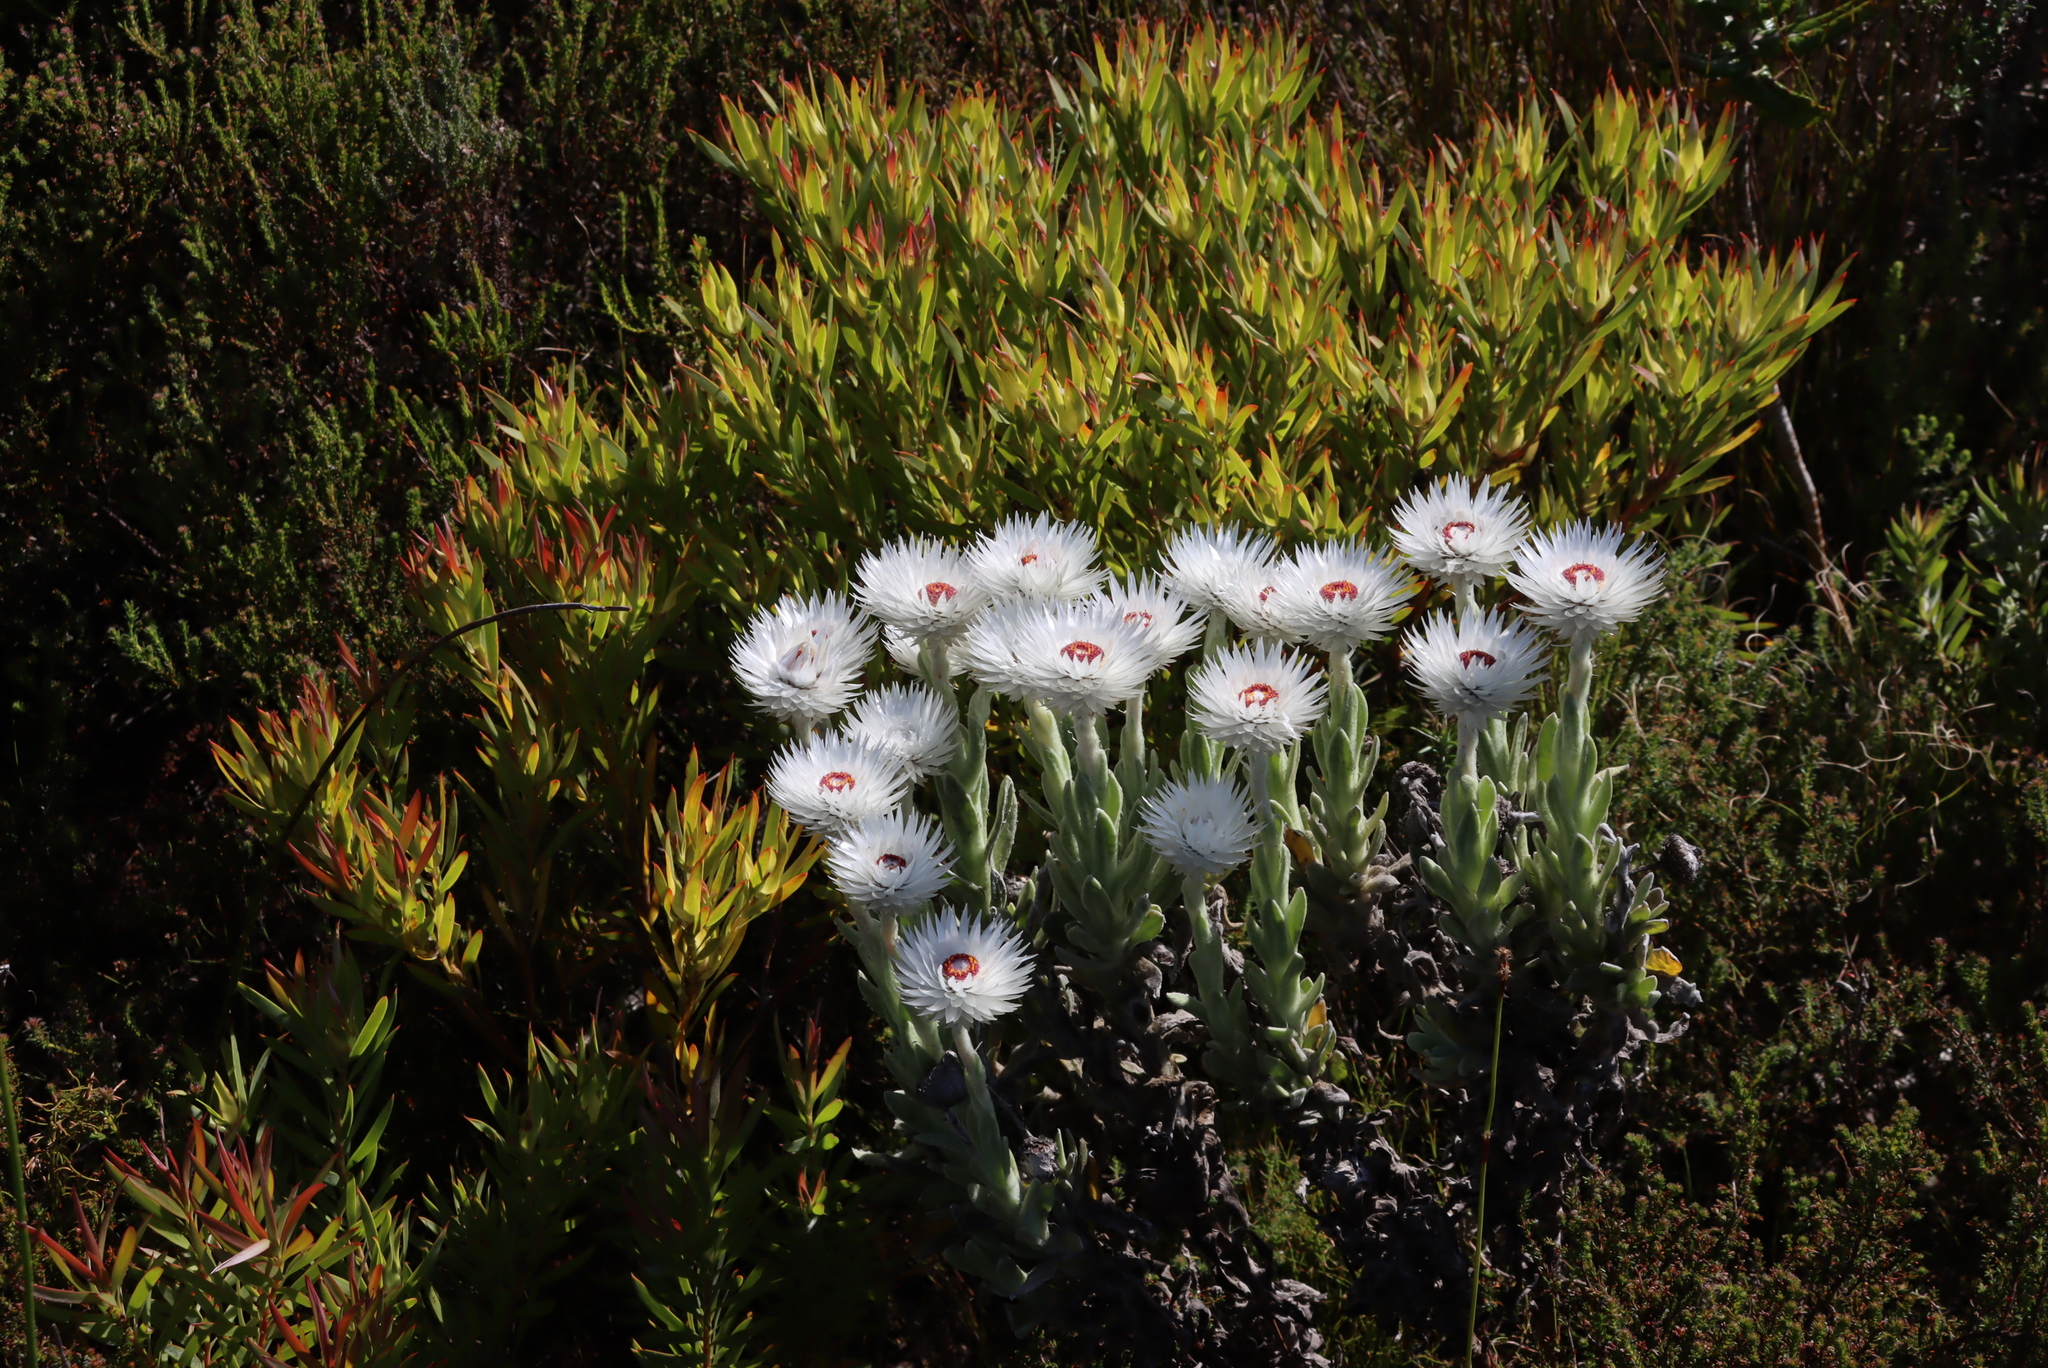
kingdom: Plantae
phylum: Tracheophyta
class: Magnoliopsida
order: Asterales
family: Asteraceae
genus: Syncarpha
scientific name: Syncarpha vestita
